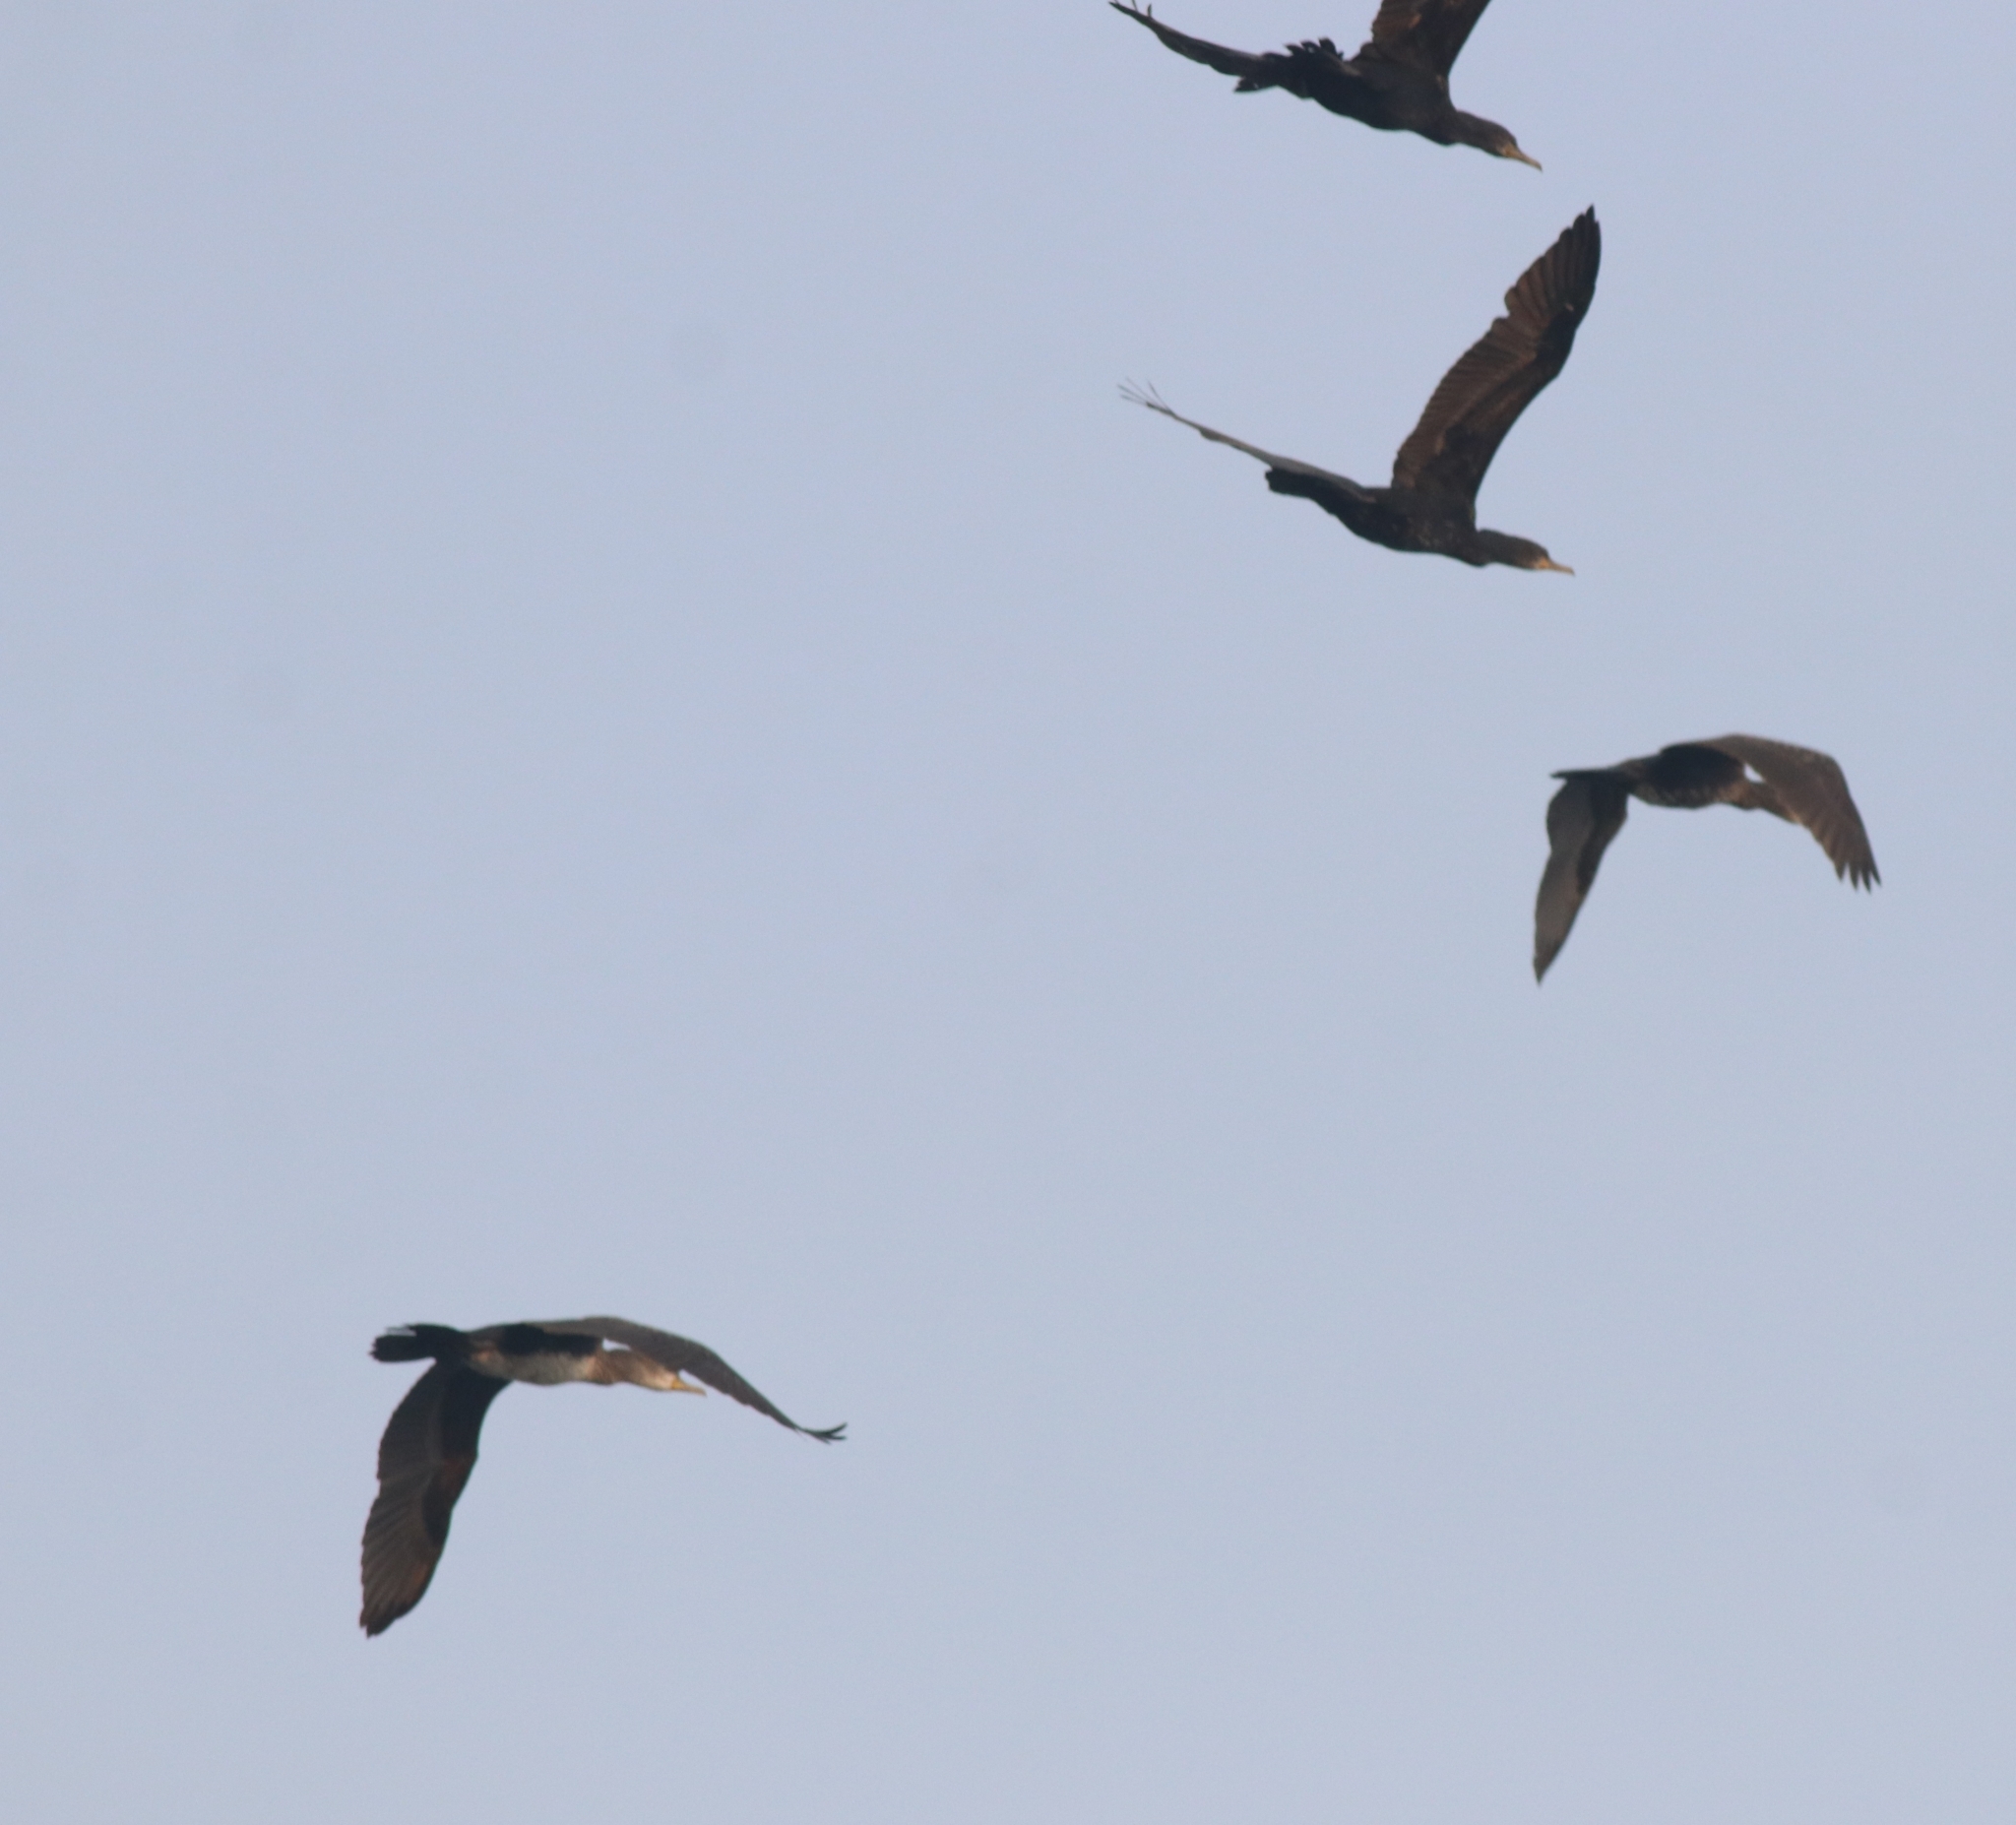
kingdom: Animalia
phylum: Chordata
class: Aves
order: Suliformes
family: Phalacrocoracidae
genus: Phalacrocorax
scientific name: Phalacrocorax fuscicollis
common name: Indian cormorant
